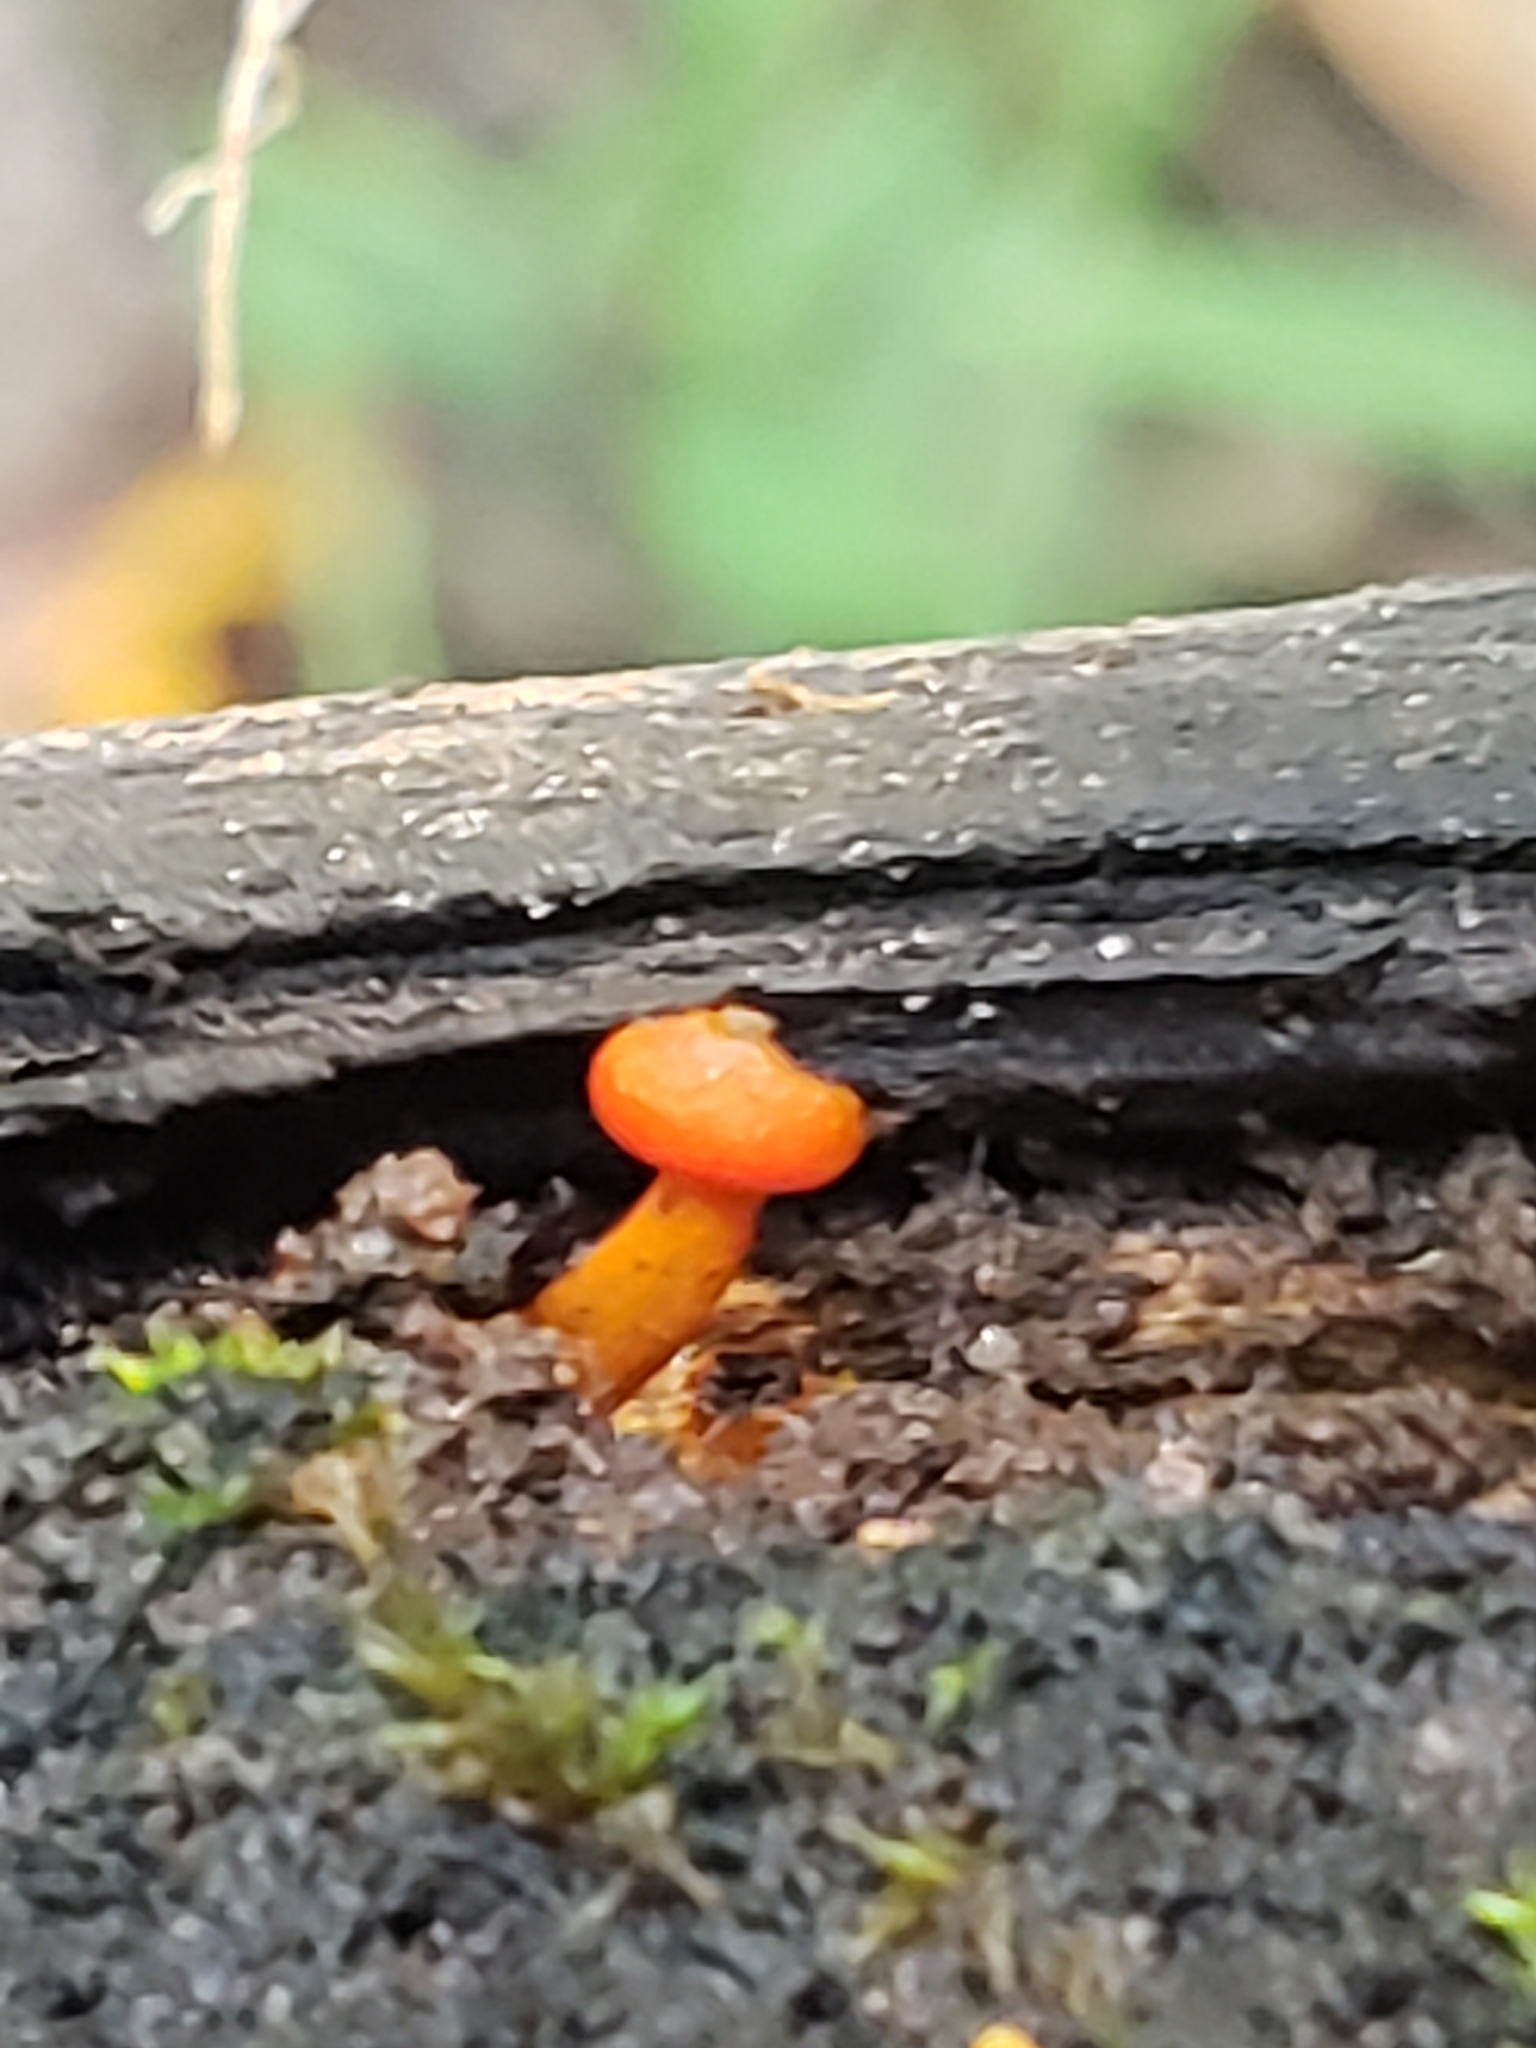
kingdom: Fungi
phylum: Basidiomycota
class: Agaricomycetes
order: Agaricales
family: Mycenaceae
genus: Mycena
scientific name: Mycena leaiana
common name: Orange mycena
